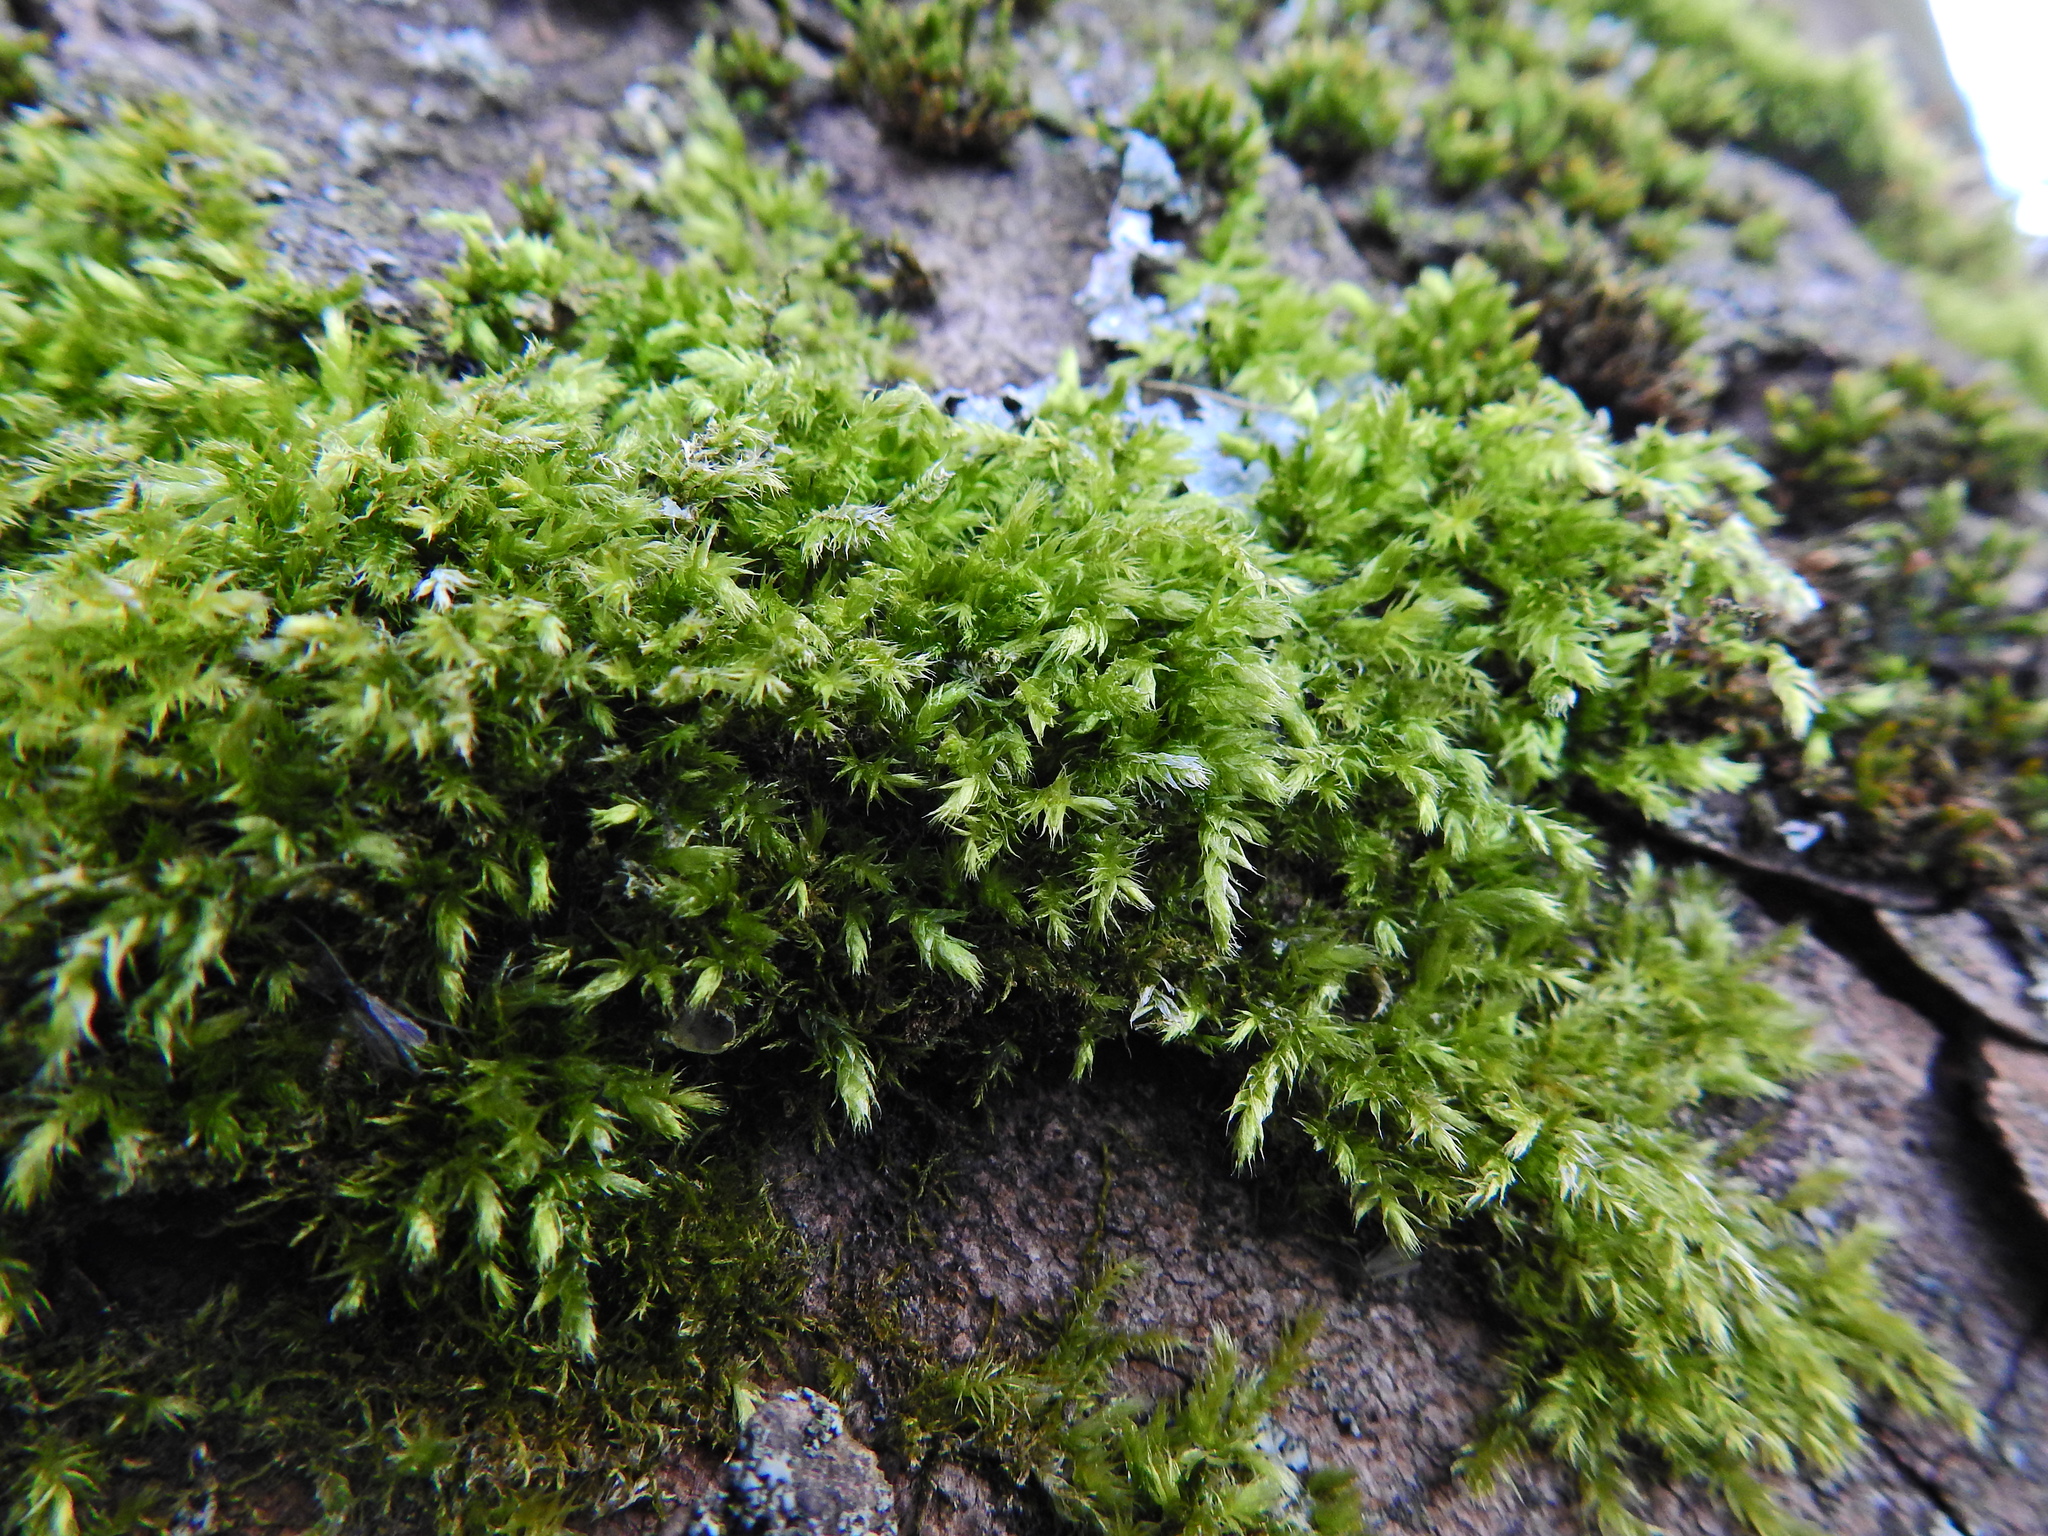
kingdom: Plantae
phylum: Bryophyta
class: Bryopsida
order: Hypnales
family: Brachytheciaceae
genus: Brachythecium
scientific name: Brachythecium rutabulum
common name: Rough-stalked feather-moss
